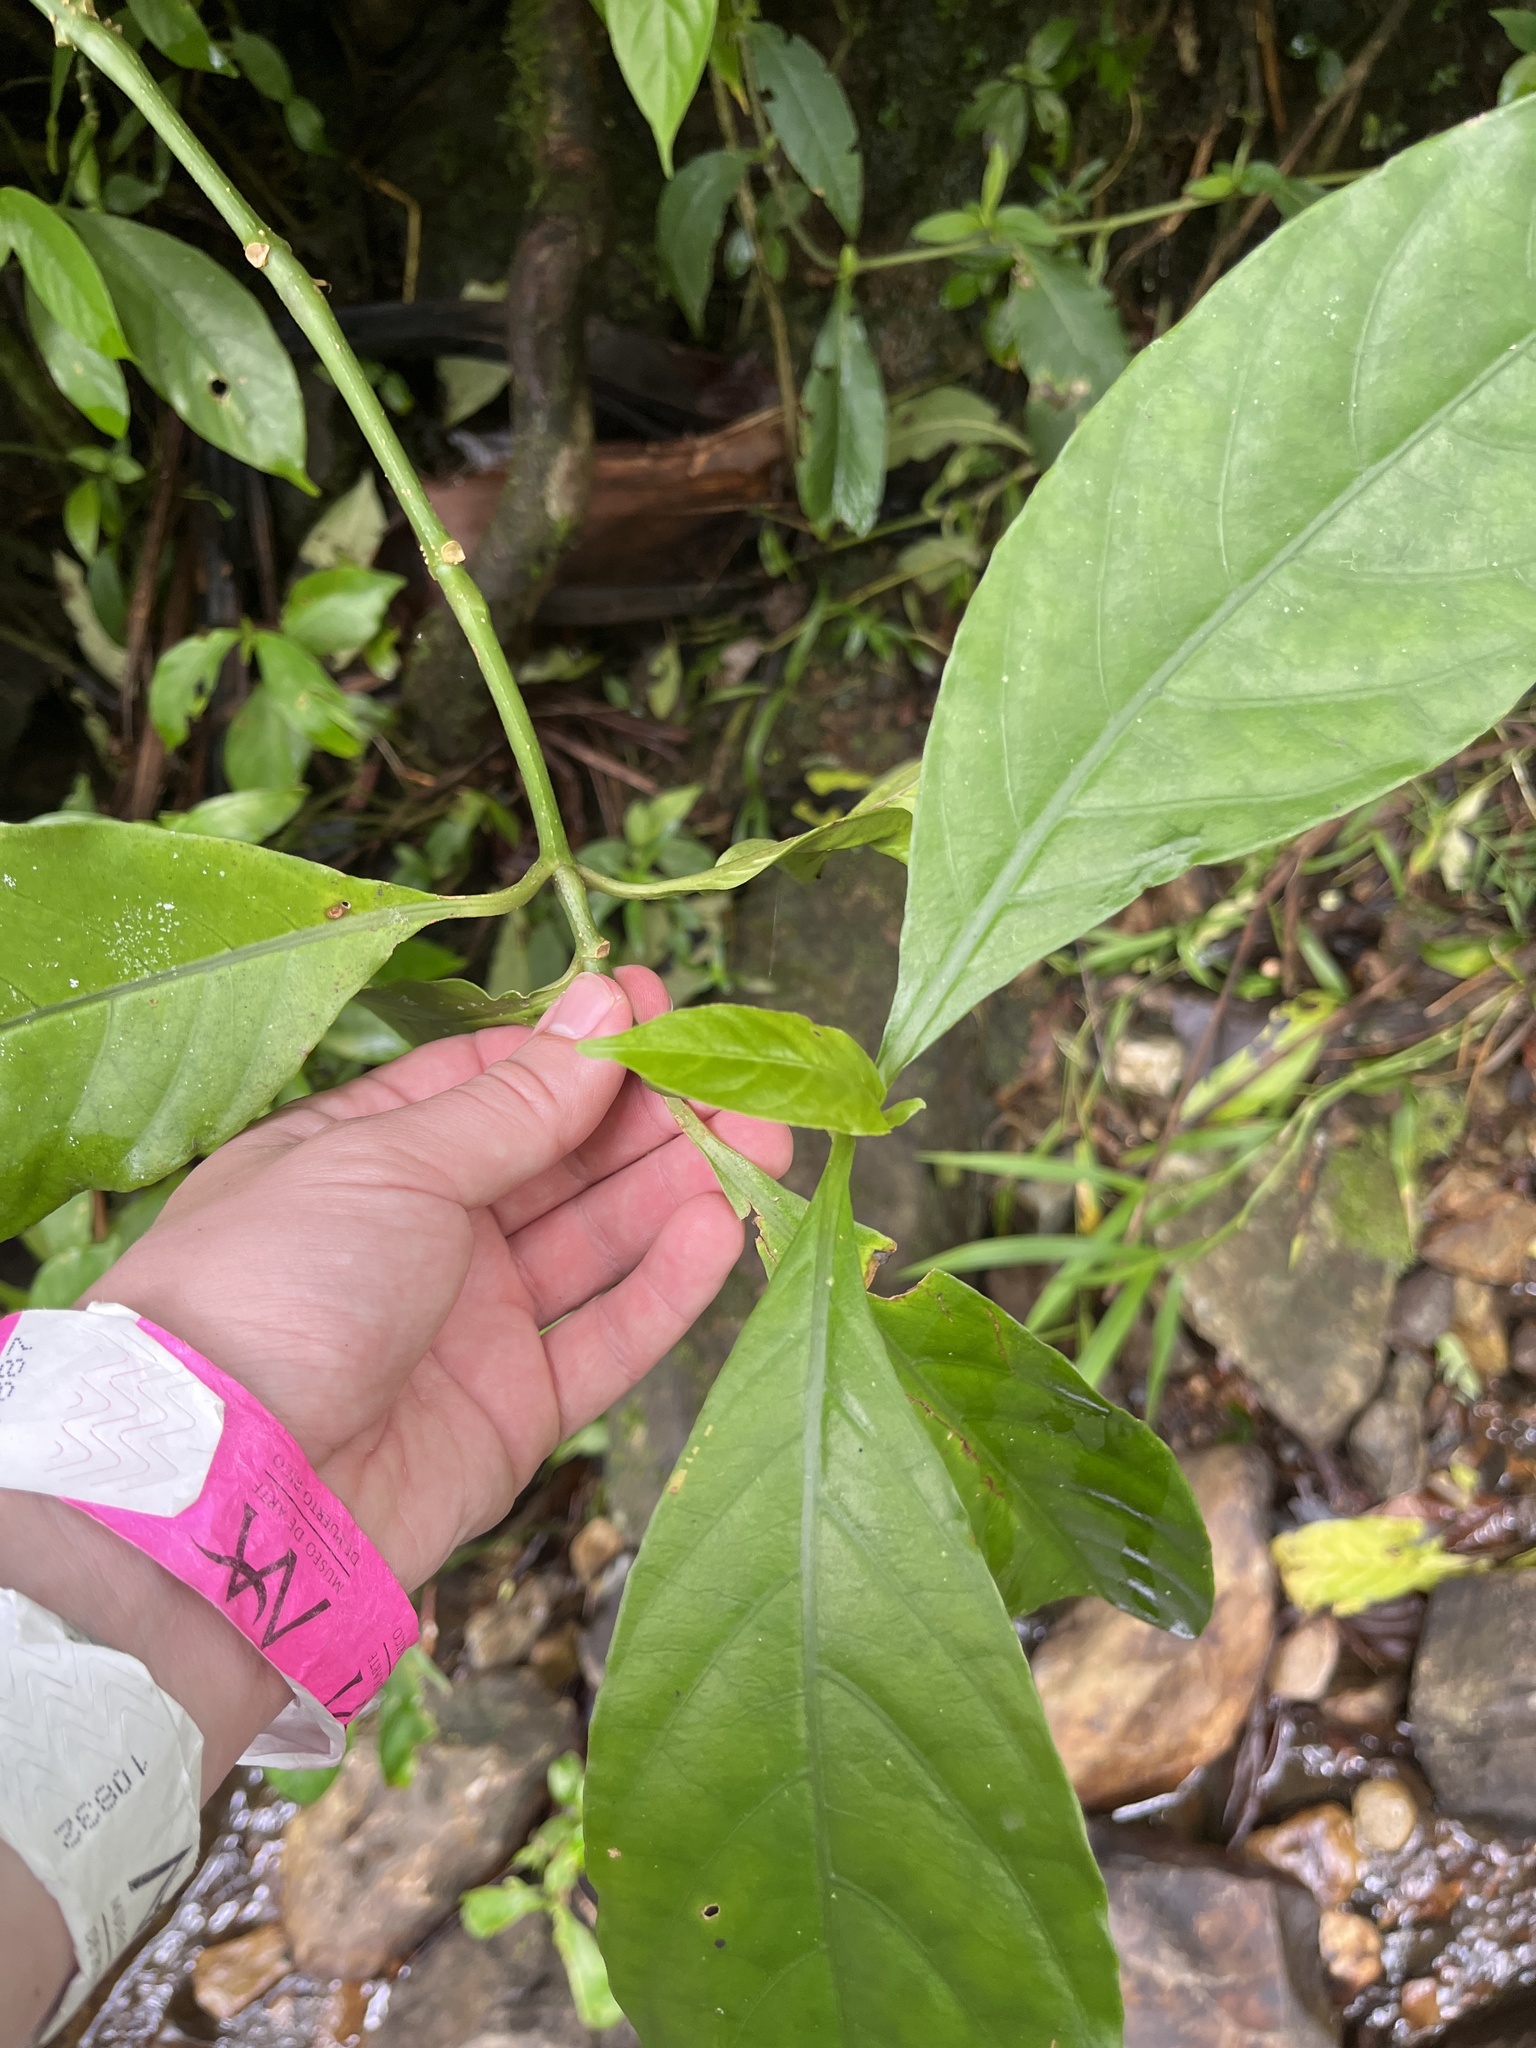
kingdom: Plantae
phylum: Tracheophyta
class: Magnoliopsida
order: Lamiales
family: Acanthaceae
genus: Odontonema
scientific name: Odontonema cuspidatum
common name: Mottled toothedthread
